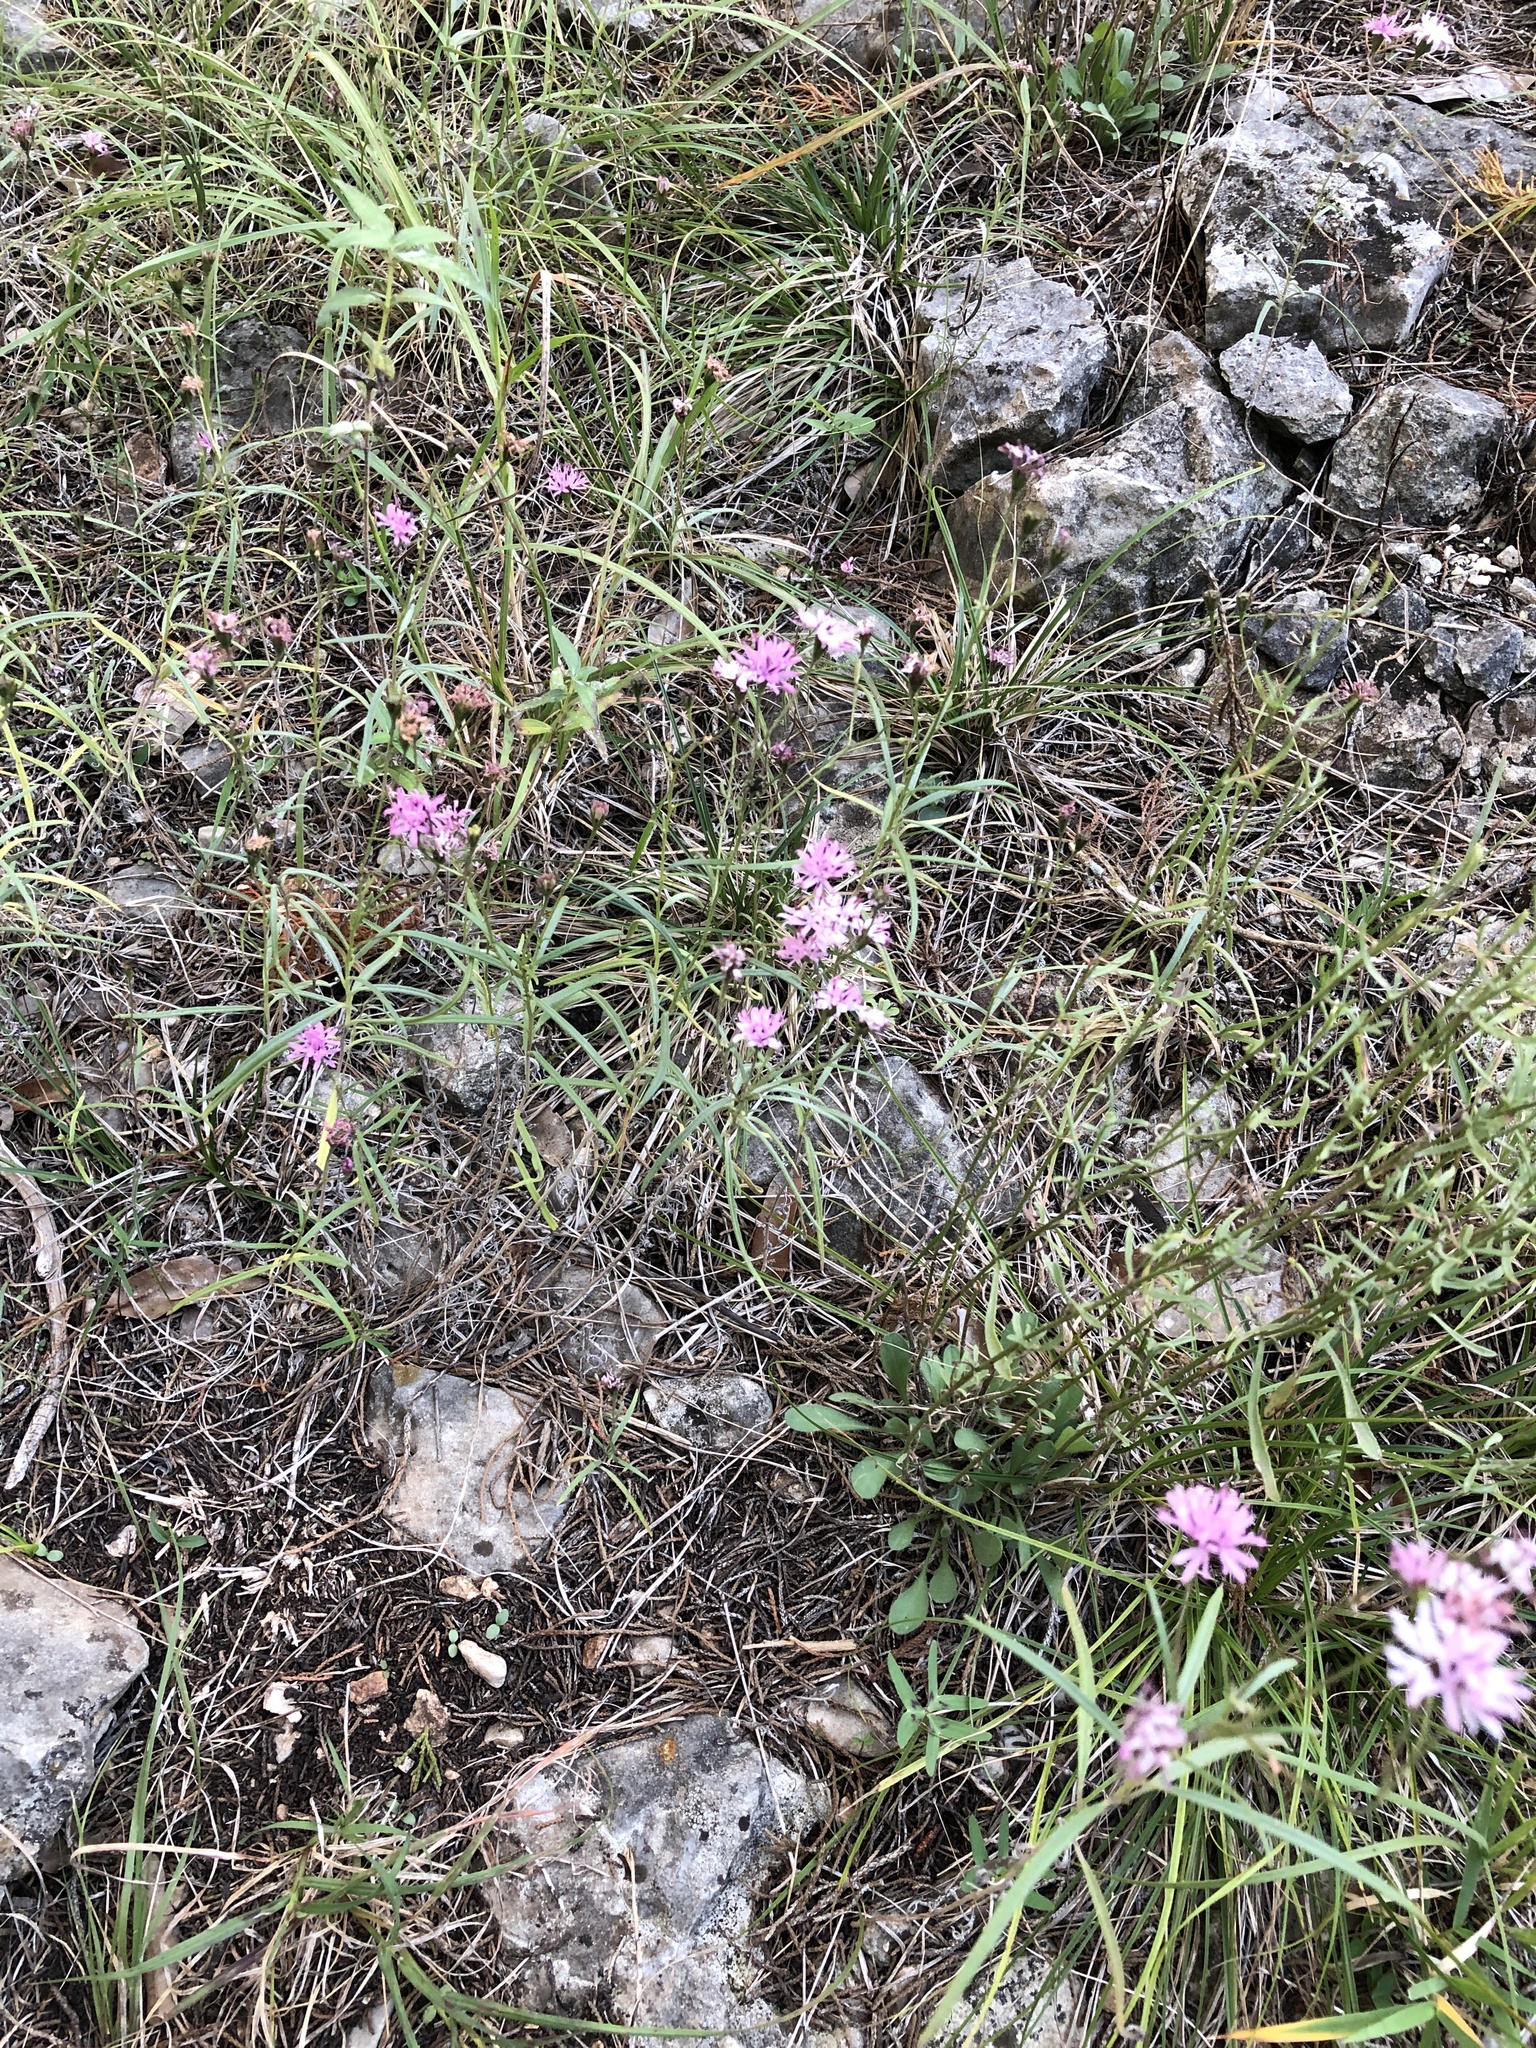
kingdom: Plantae
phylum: Tracheophyta
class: Magnoliopsida
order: Asterales
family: Asteraceae
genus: Palafoxia
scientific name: Palafoxia callosa
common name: Small palafox
